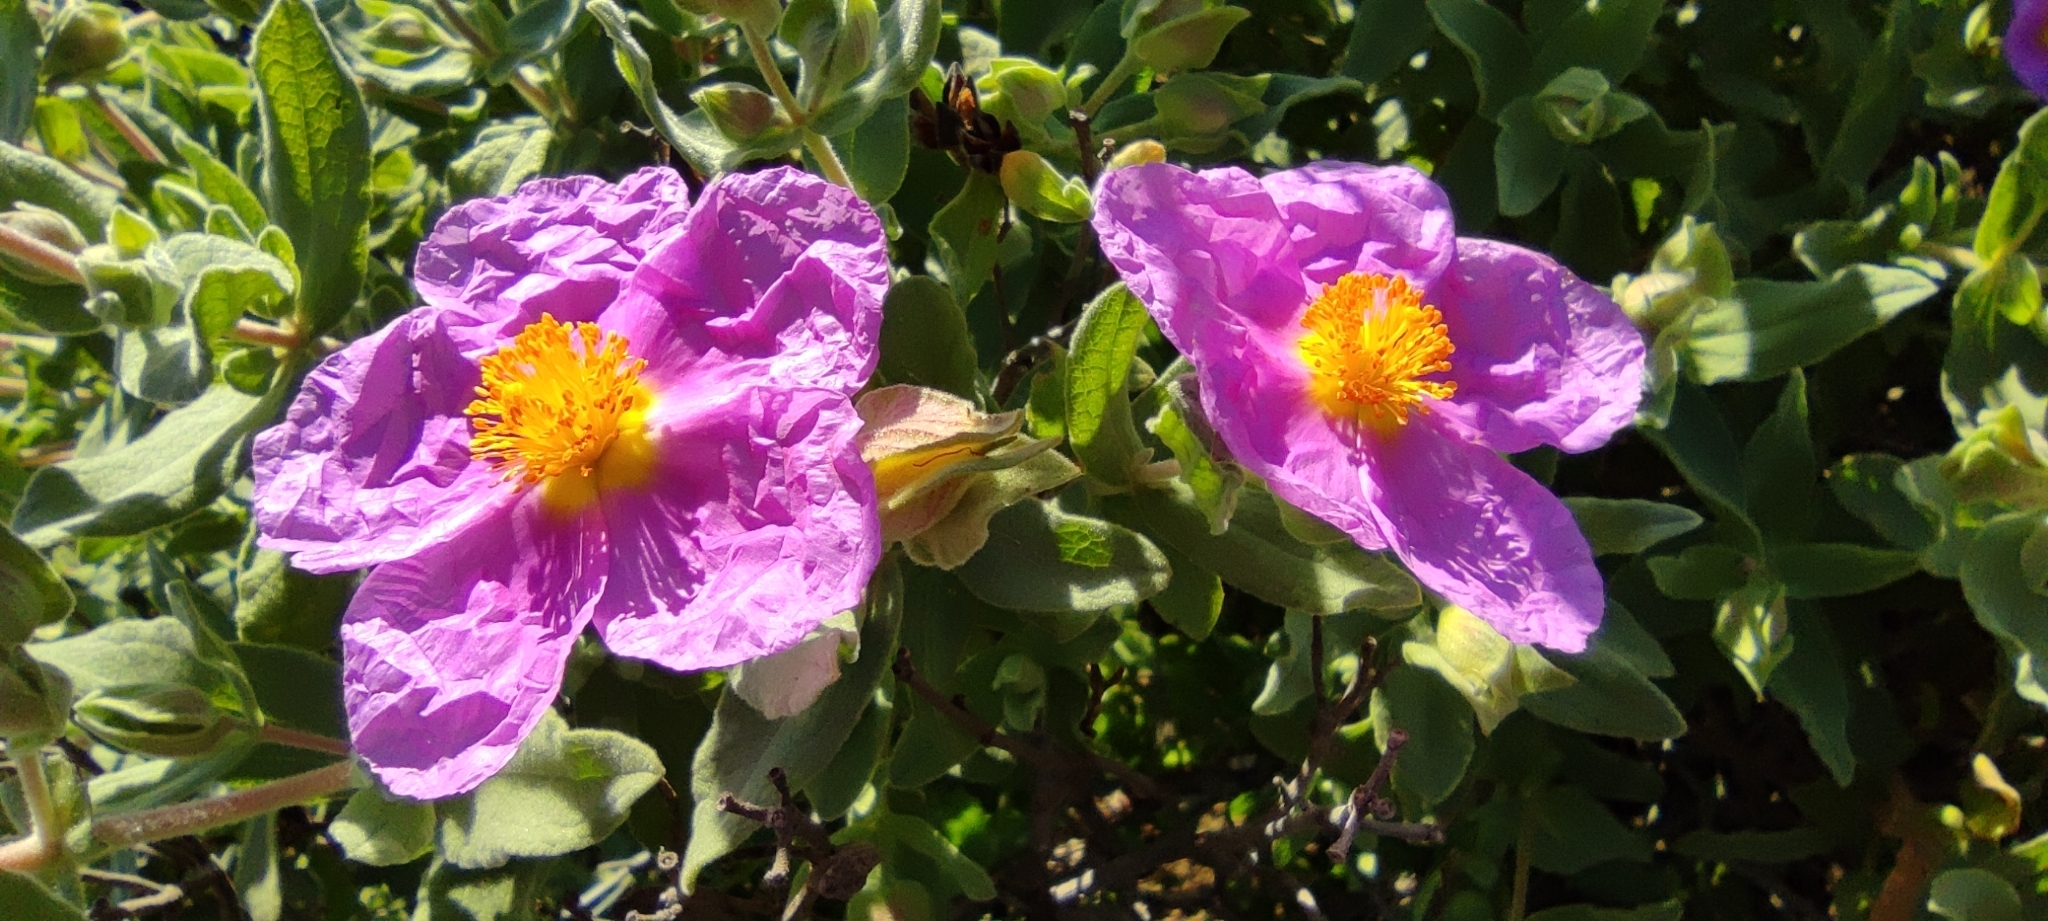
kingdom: Plantae
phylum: Tracheophyta
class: Magnoliopsida
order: Malvales
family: Cistaceae
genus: Cistus
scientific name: Cistus albidus
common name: White-leaf rock-rose
